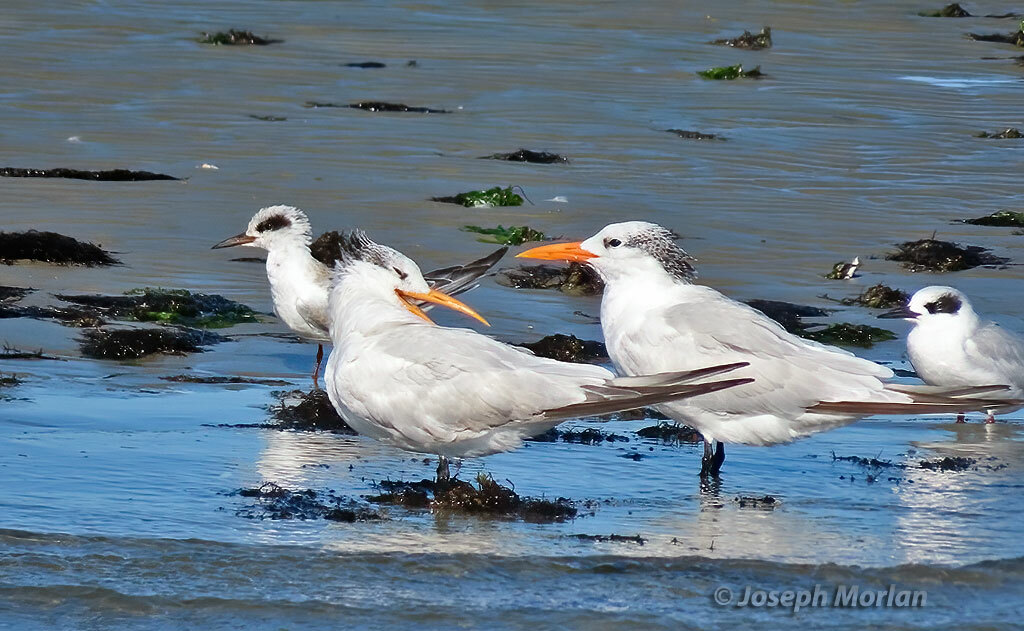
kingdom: Animalia
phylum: Chordata
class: Aves
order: Charadriiformes
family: Laridae
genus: Thalasseus
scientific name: Thalasseus maximus
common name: Royal tern
